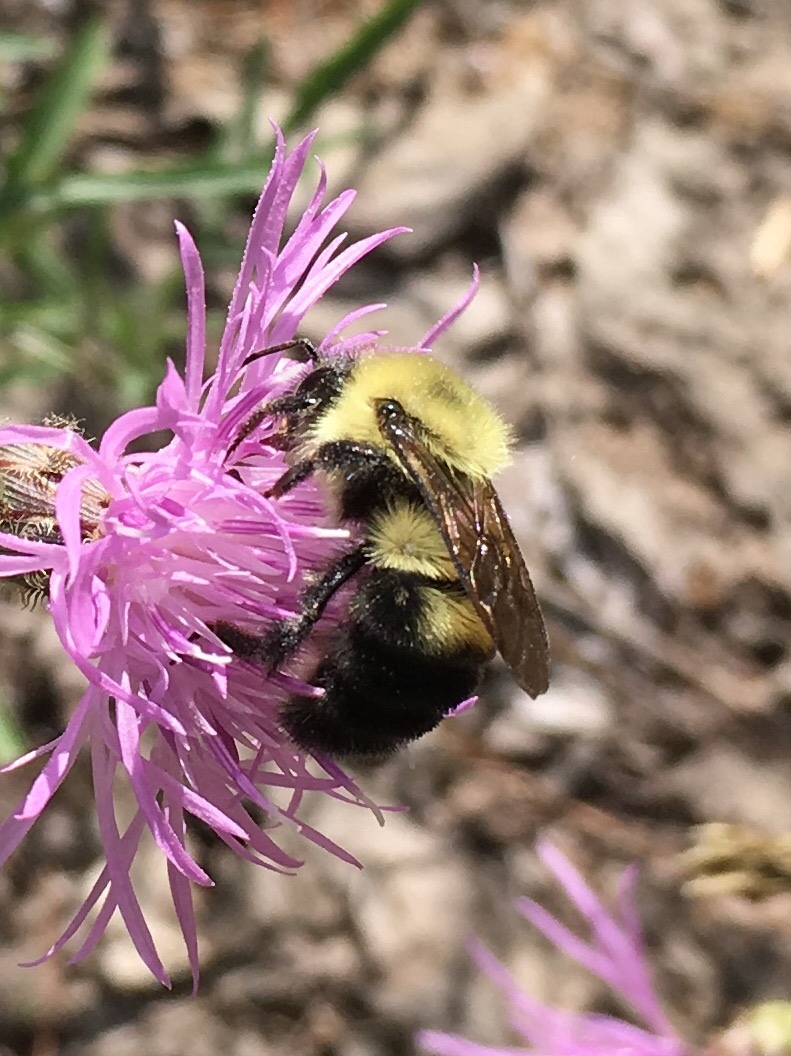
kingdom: Animalia
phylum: Arthropoda
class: Insecta
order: Hymenoptera
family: Apidae
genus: Bombus
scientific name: Bombus bimaculatus
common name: Two-spotted bumble bee
